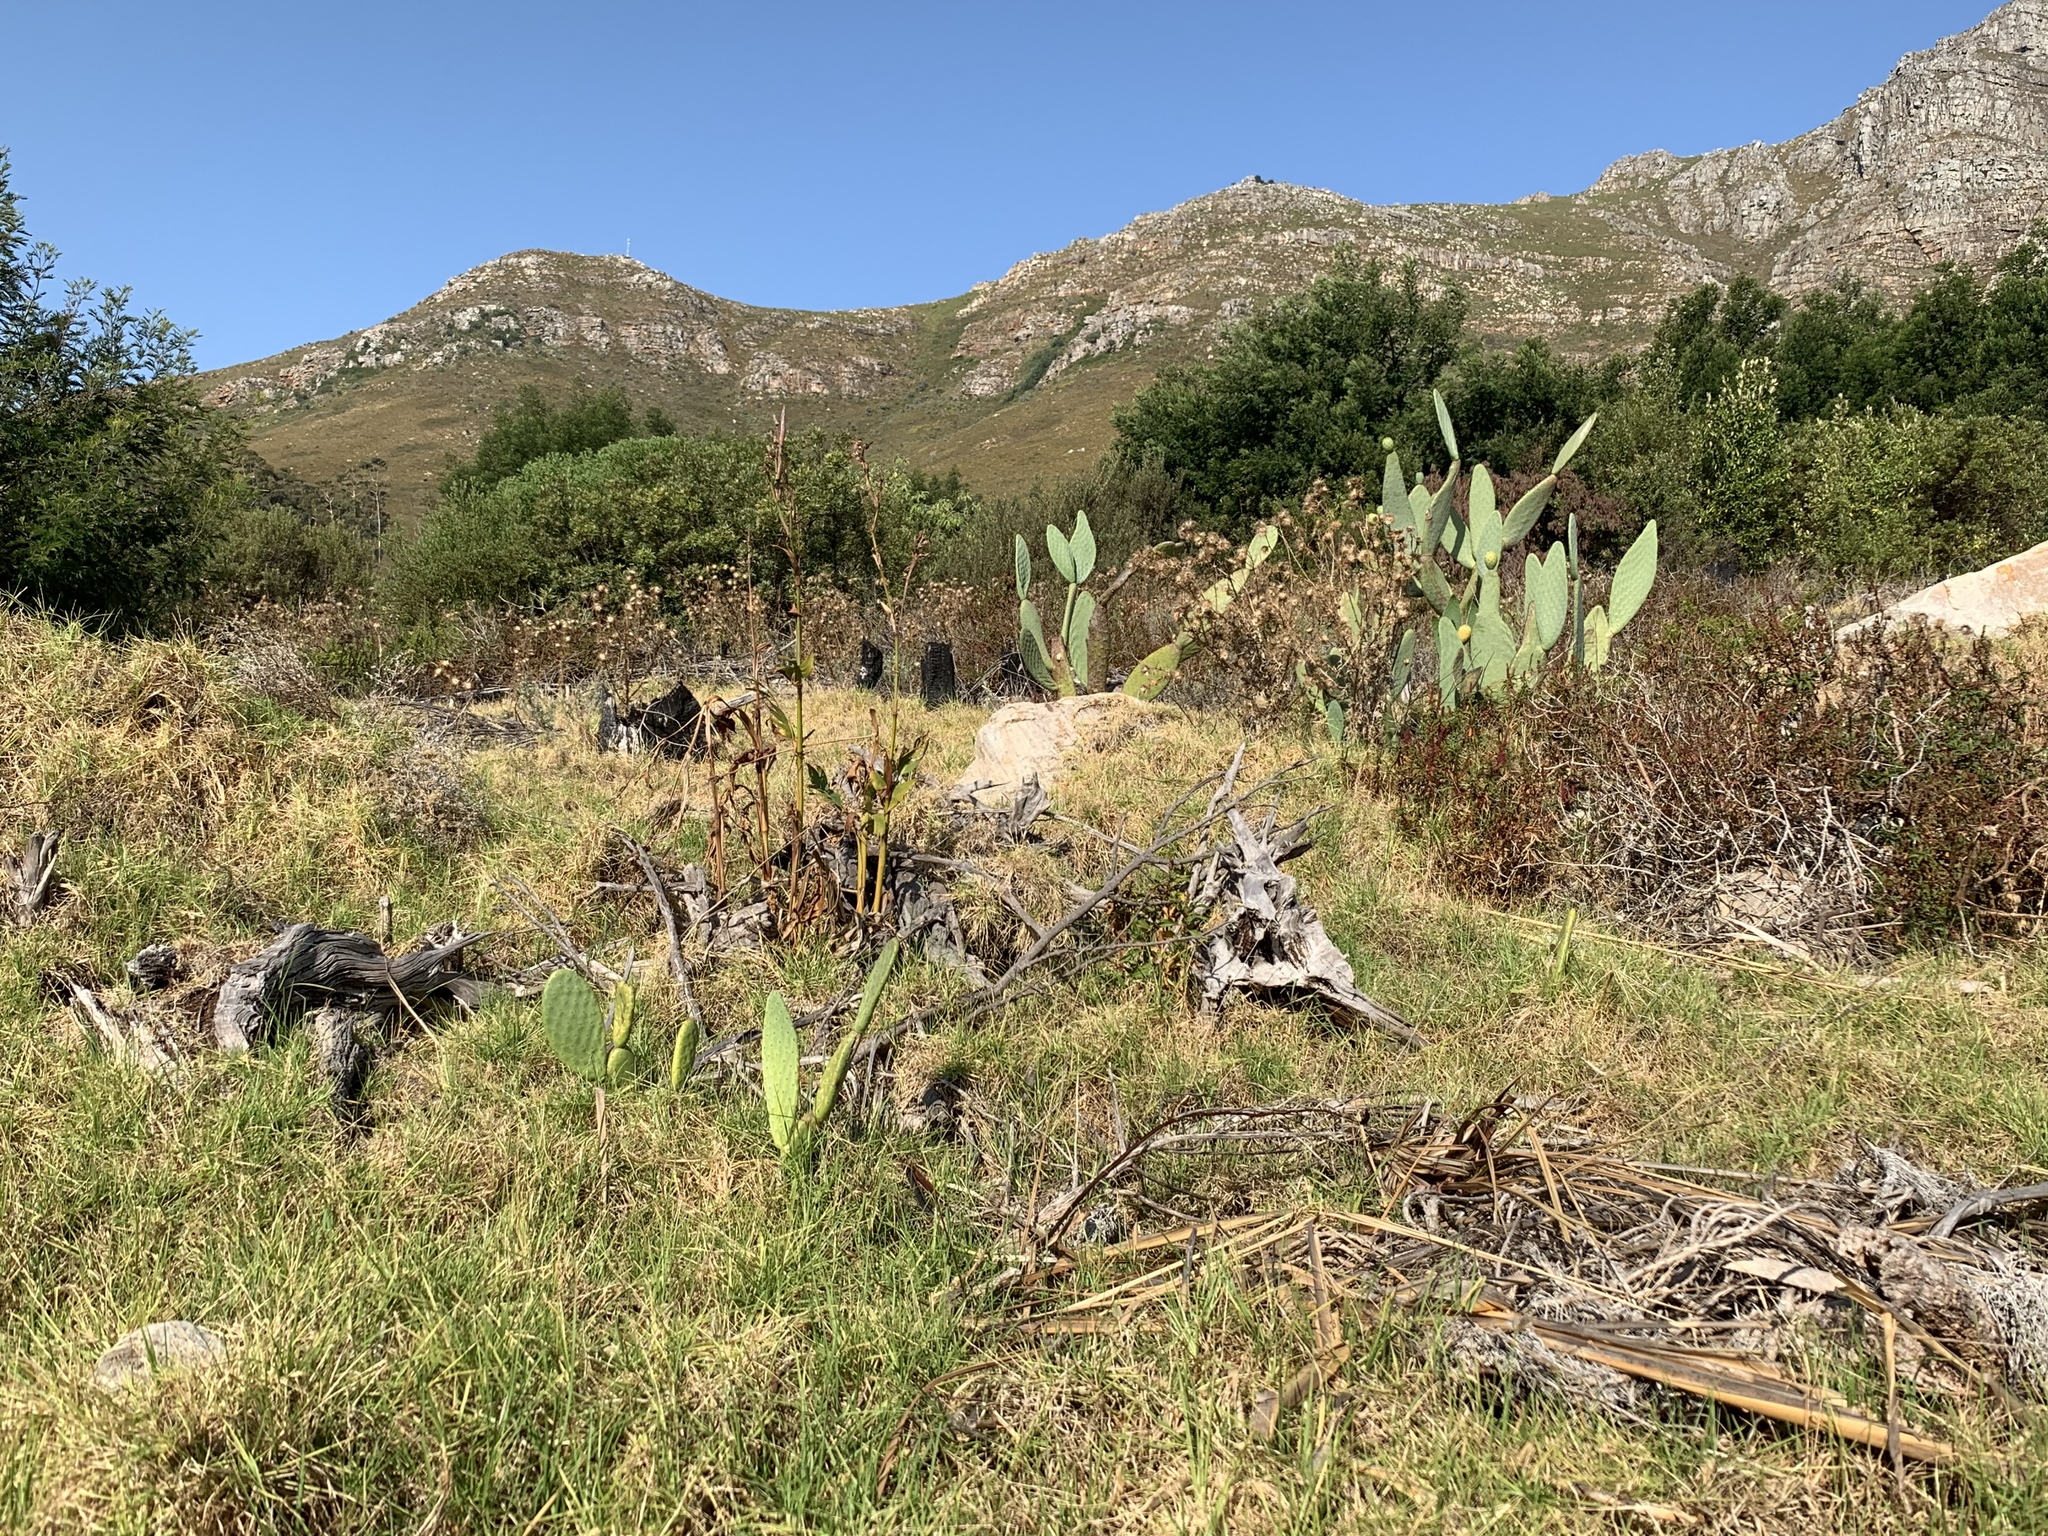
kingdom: Plantae
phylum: Tracheophyta
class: Magnoliopsida
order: Caryophyllales
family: Cactaceae
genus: Opuntia
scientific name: Opuntia ficus-indica
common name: Barbary fig
